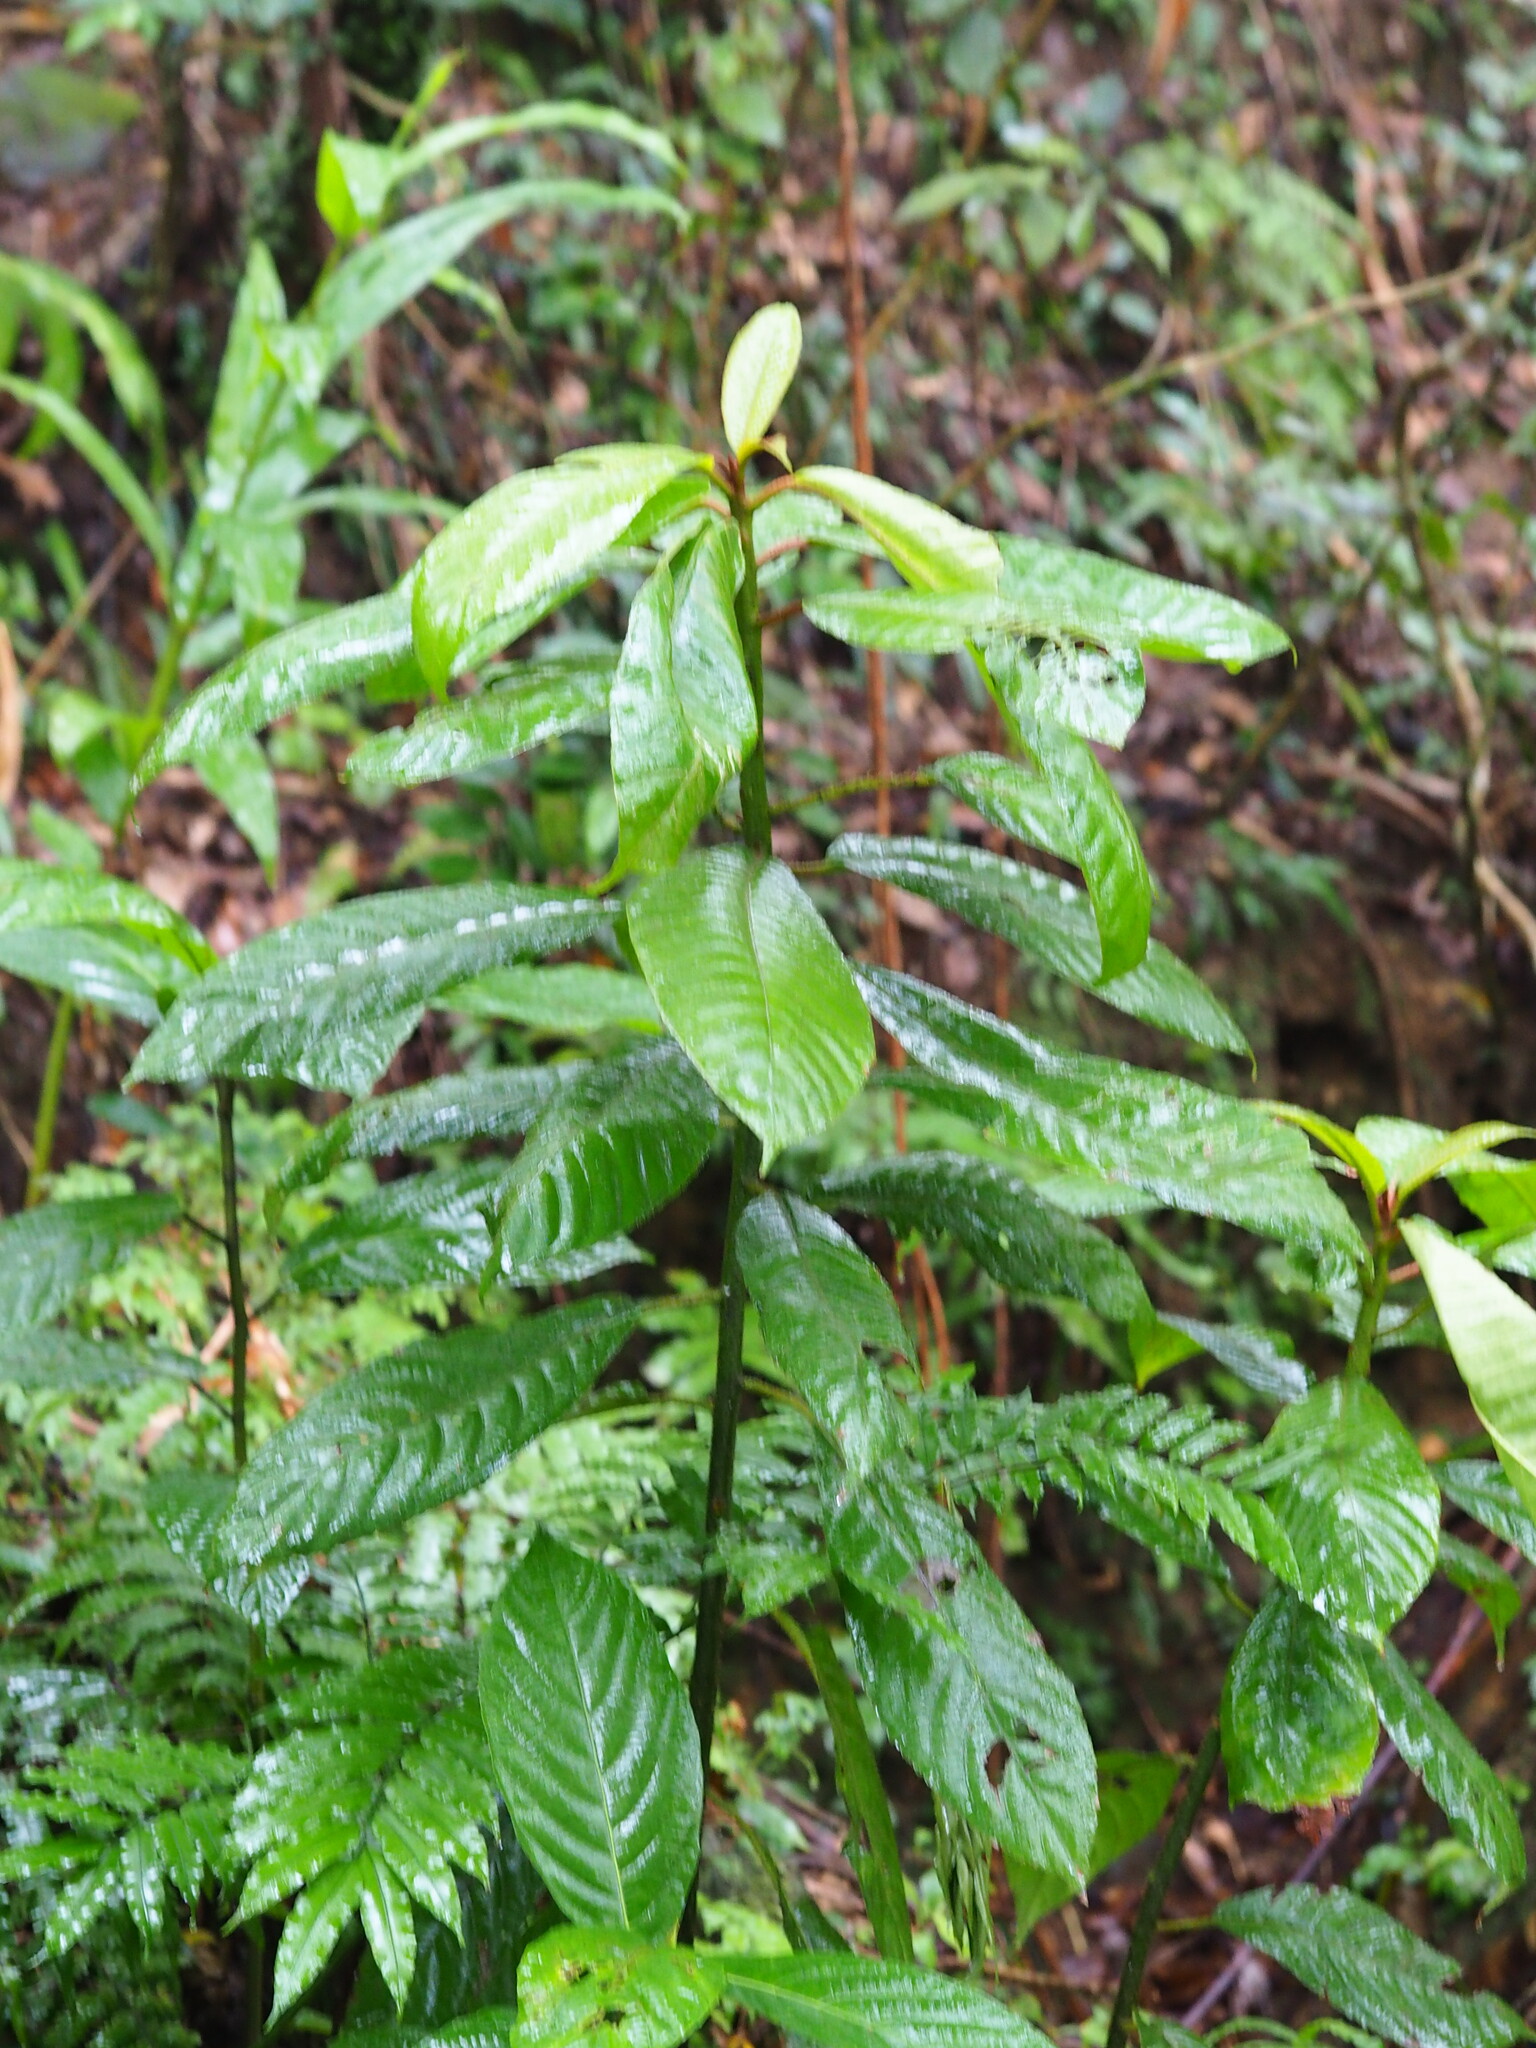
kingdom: Plantae
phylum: Tracheophyta
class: Magnoliopsida
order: Ericales
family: Actinidiaceae
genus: Saurauia
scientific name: Saurauia tristyla
